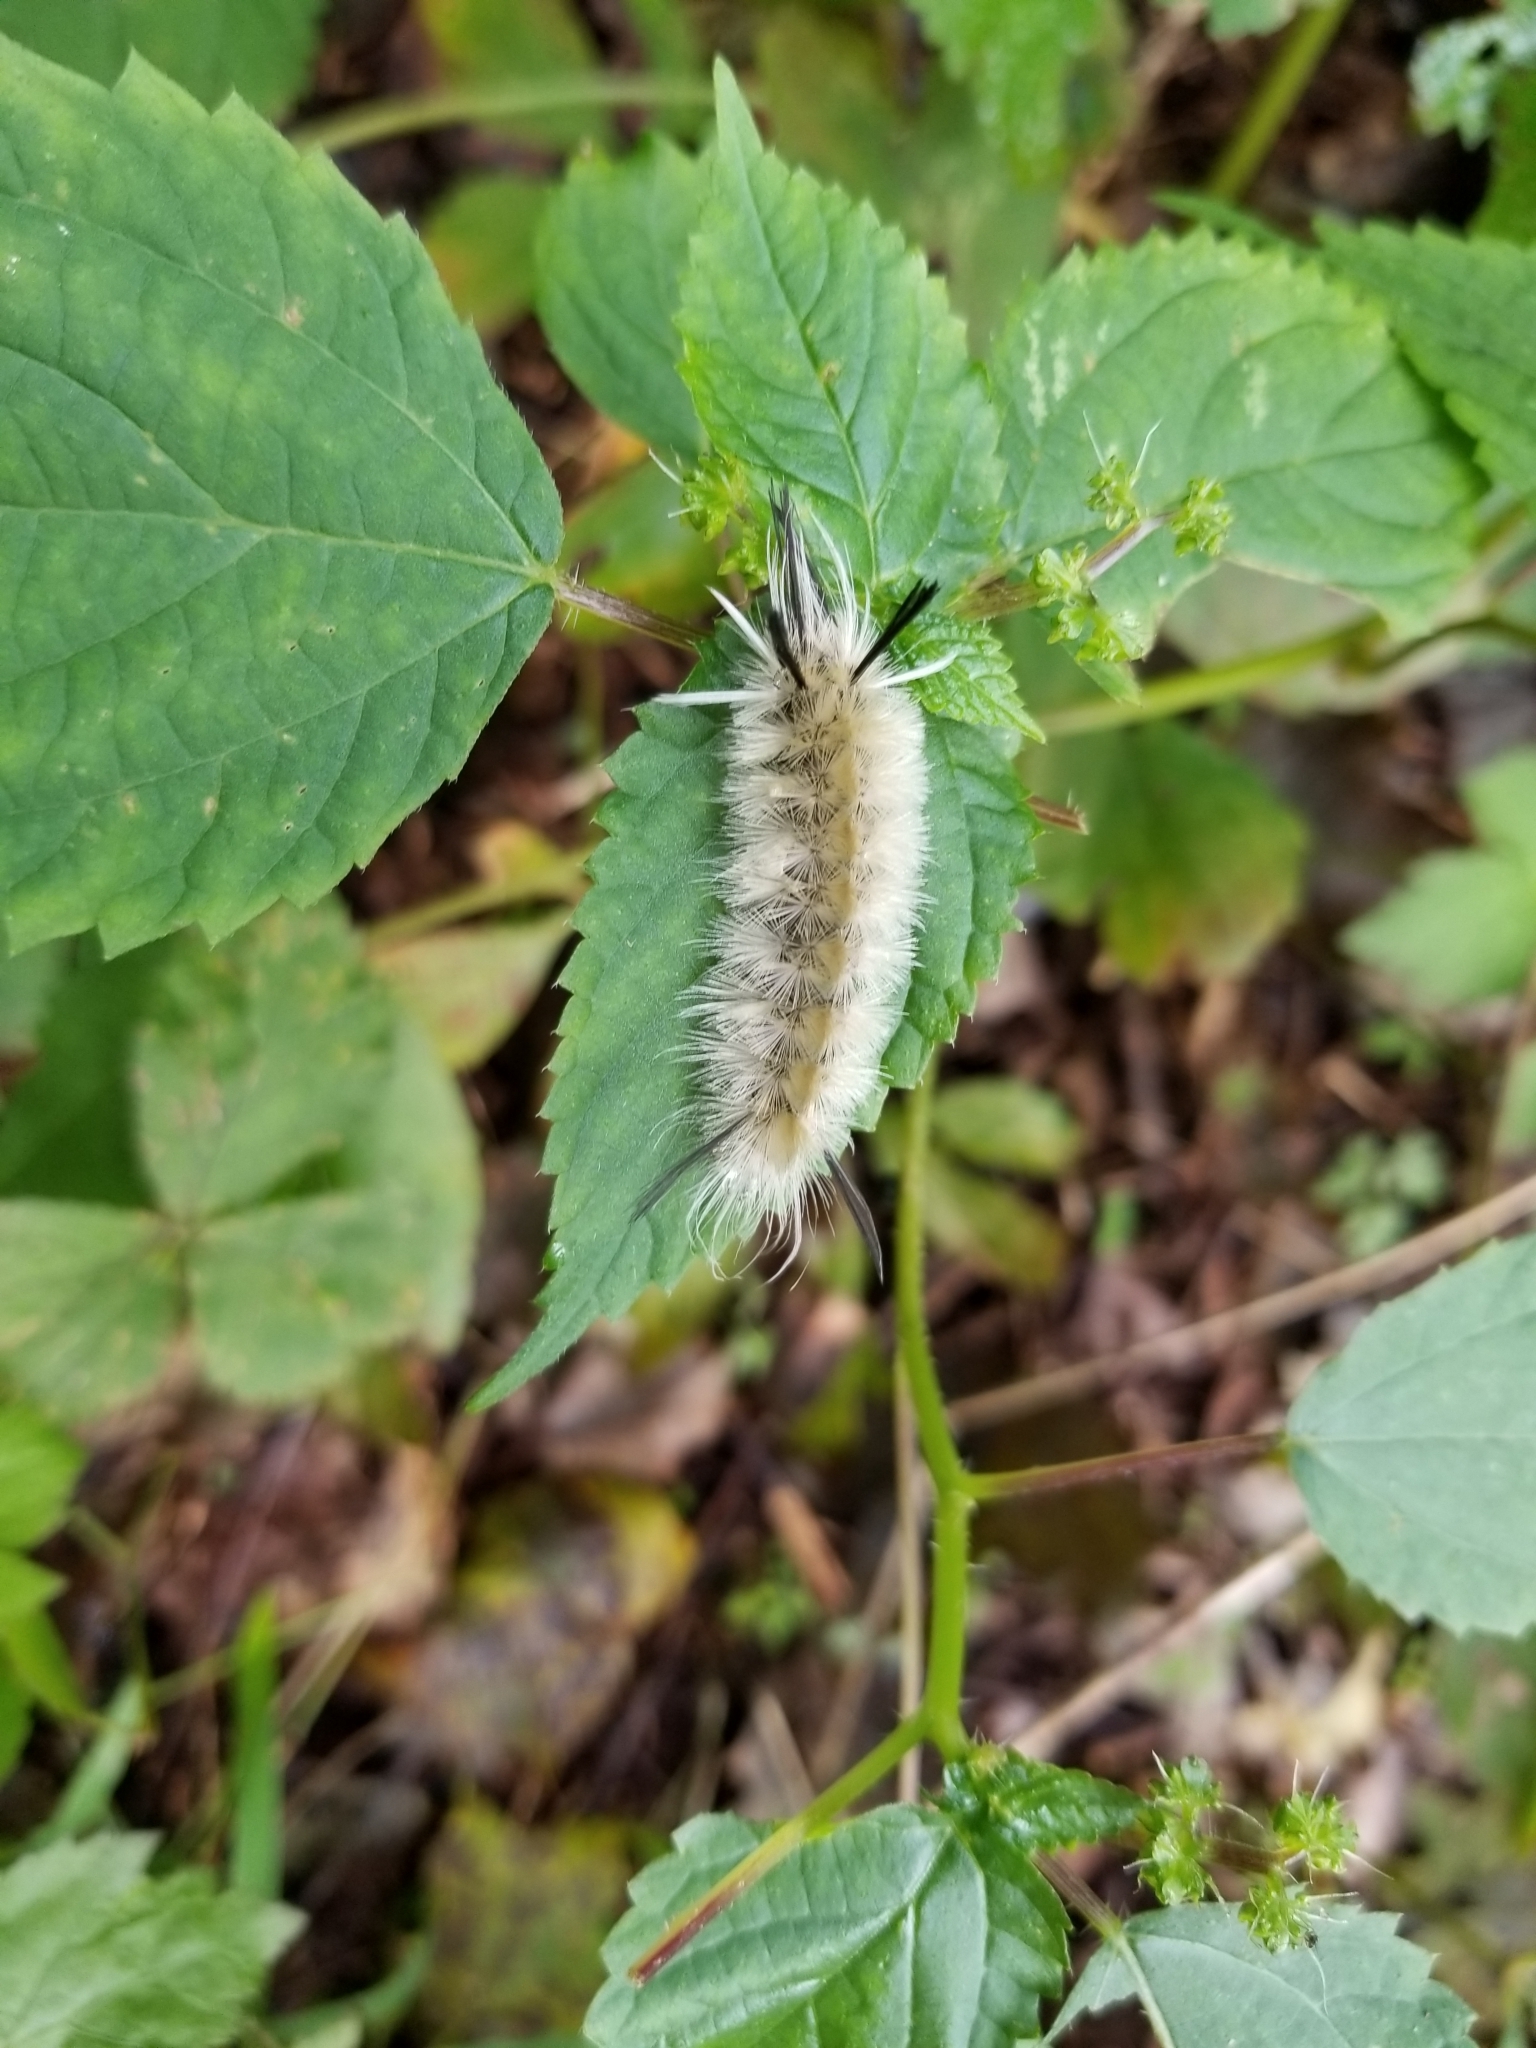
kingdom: Animalia
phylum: Arthropoda
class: Insecta
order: Lepidoptera
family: Erebidae
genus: Halysidota
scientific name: Halysidota tessellaris
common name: Banded tussock moth
